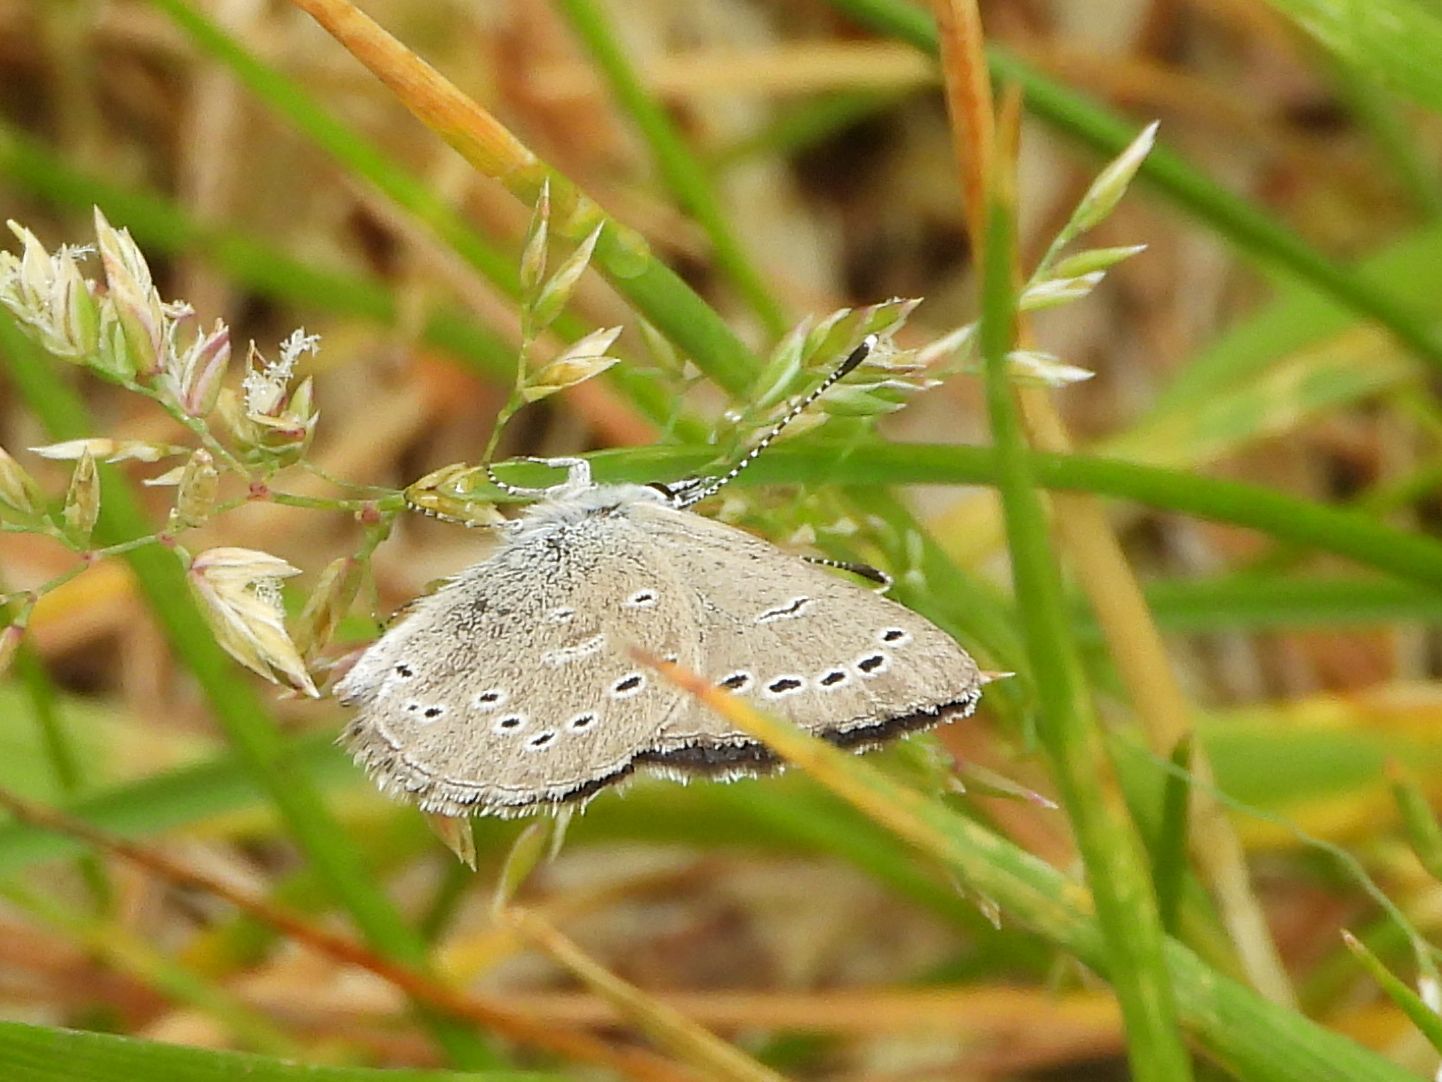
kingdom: Animalia
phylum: Arthropoda
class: Insecta
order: Lepidoptera
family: Lycaenidae
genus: Glaucopsyche
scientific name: Glaucopsyche lygdamus
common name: Silvery blue
